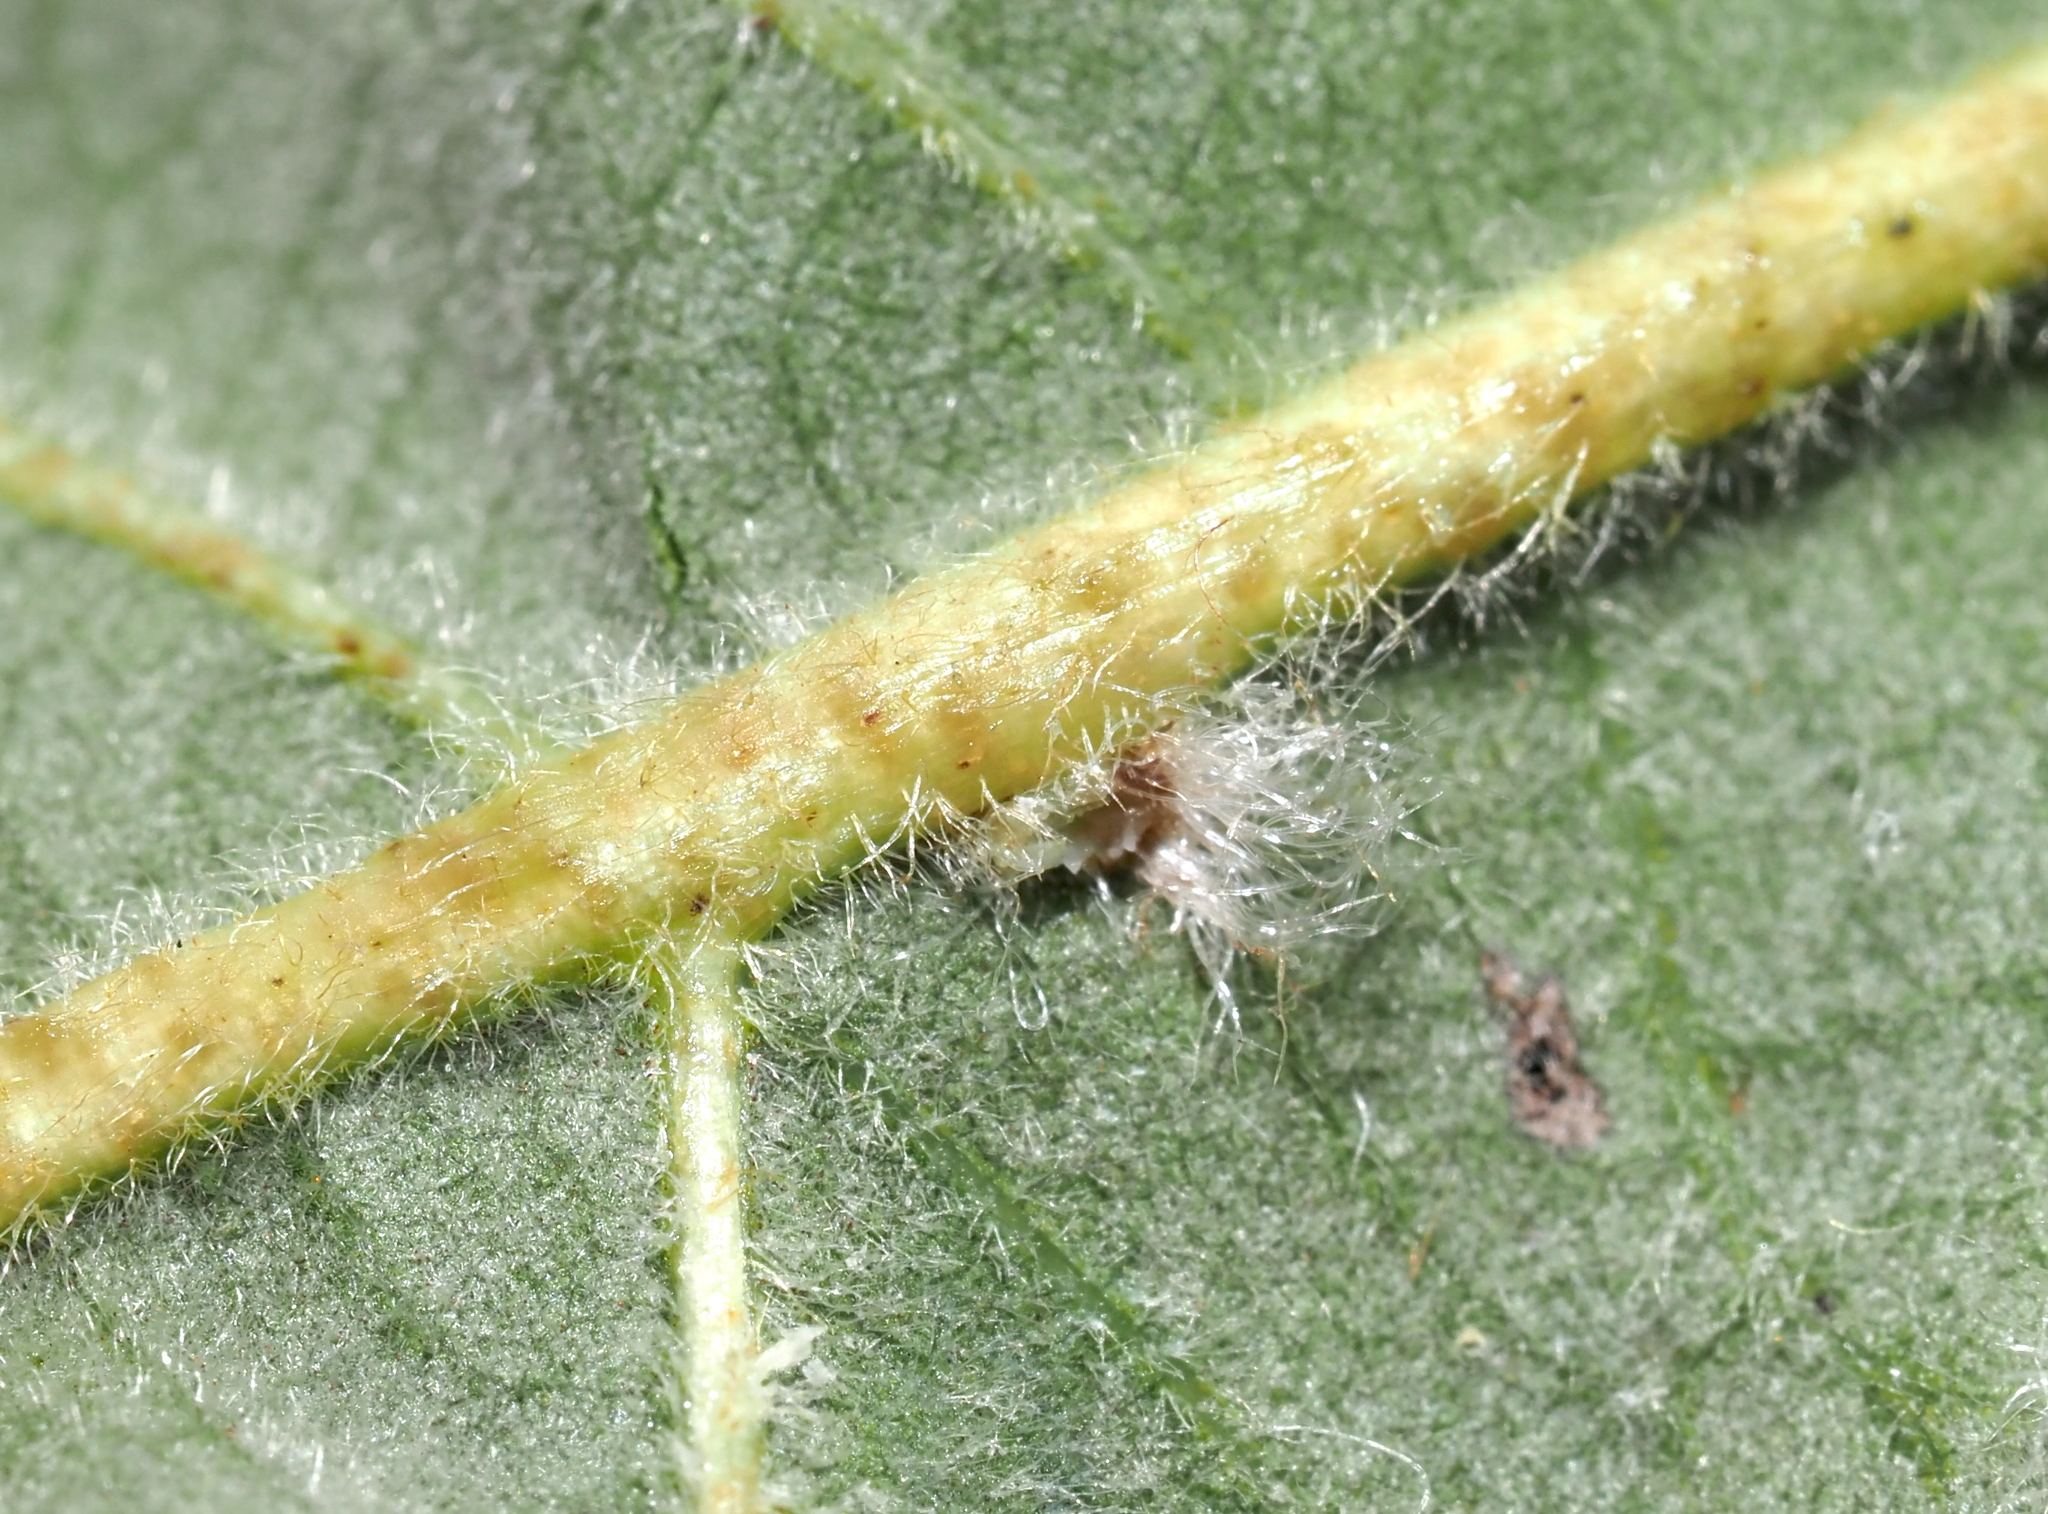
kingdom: Animalia
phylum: Arthropoda
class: Insecta
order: Hymenoptera
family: Cynipidae
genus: Neuroterus
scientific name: Neuroterus floccosus
